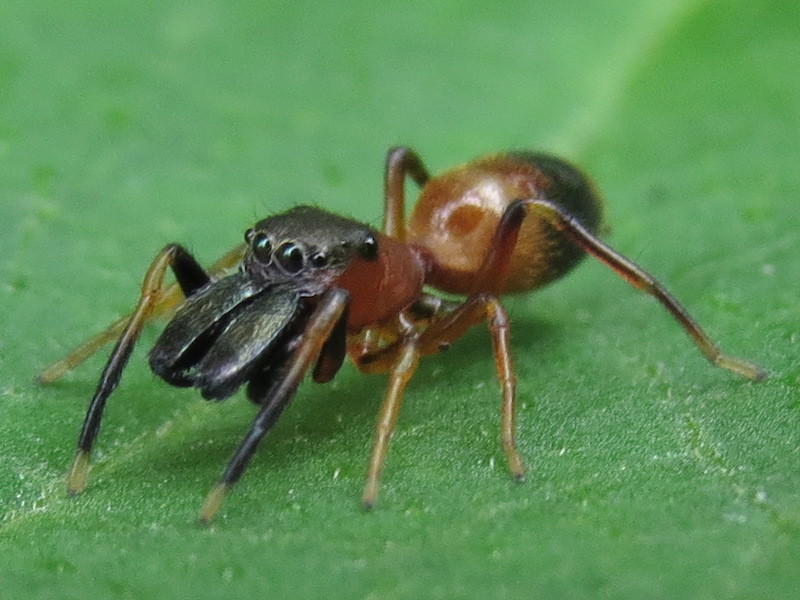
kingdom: Animalia
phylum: Arthropoda
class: Arachnida
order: Araneae
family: Salticidae
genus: Myrmarachne
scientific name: Myrmarachne formicaria
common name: Ant mimic jumping spider
